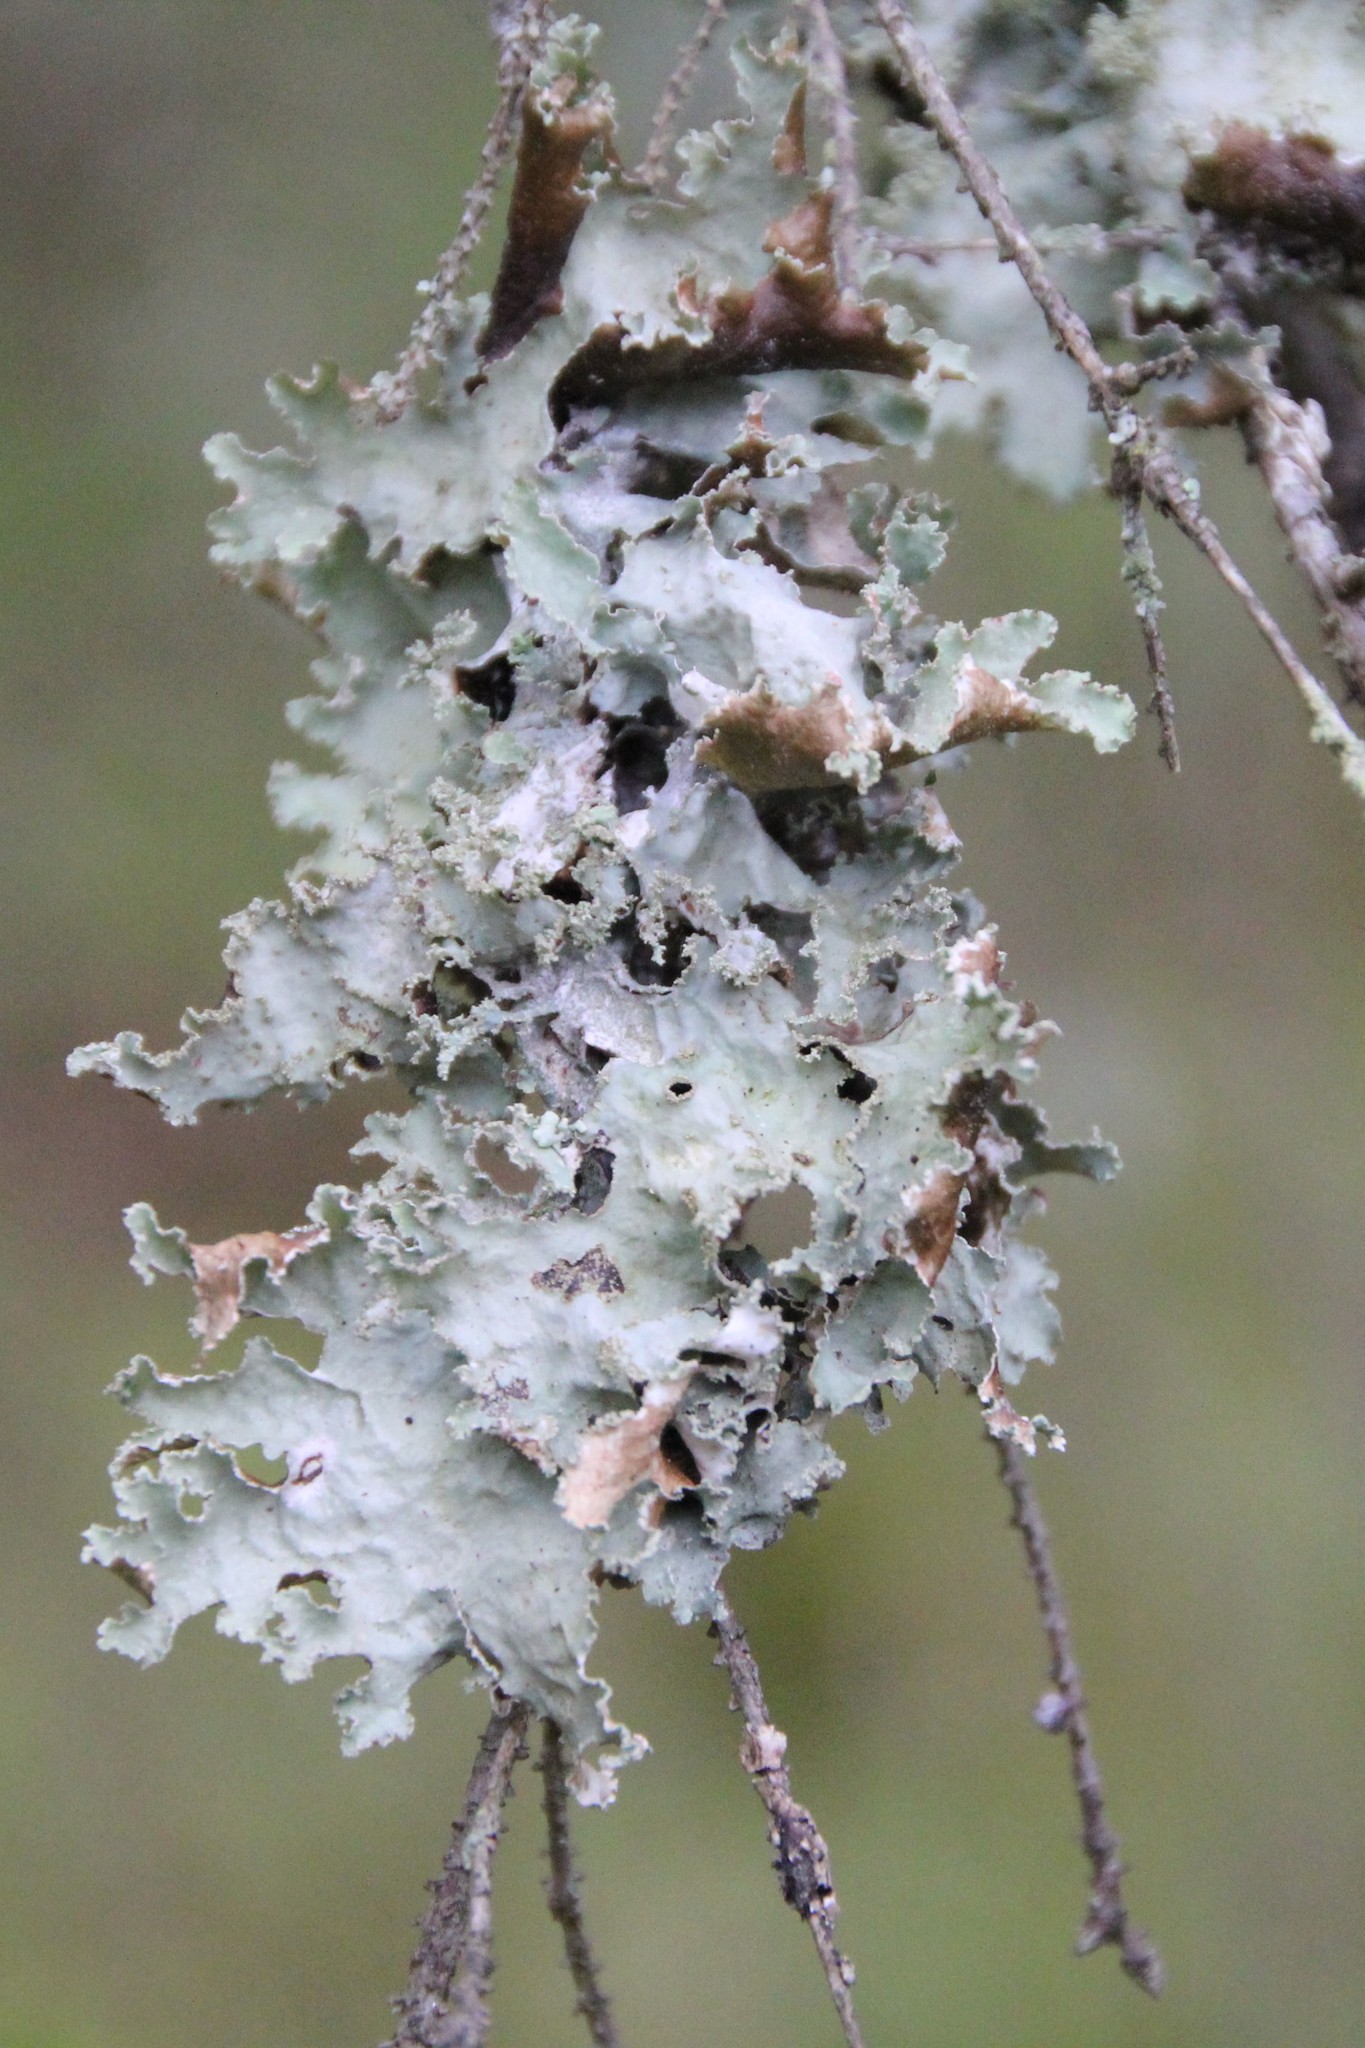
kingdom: Fungi
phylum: Ascomycota
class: Lecanoromycetes
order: Lecanorales
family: Parmeliaceae
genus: Platismatia
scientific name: Platismatia glauca
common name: Varied rag lichen
